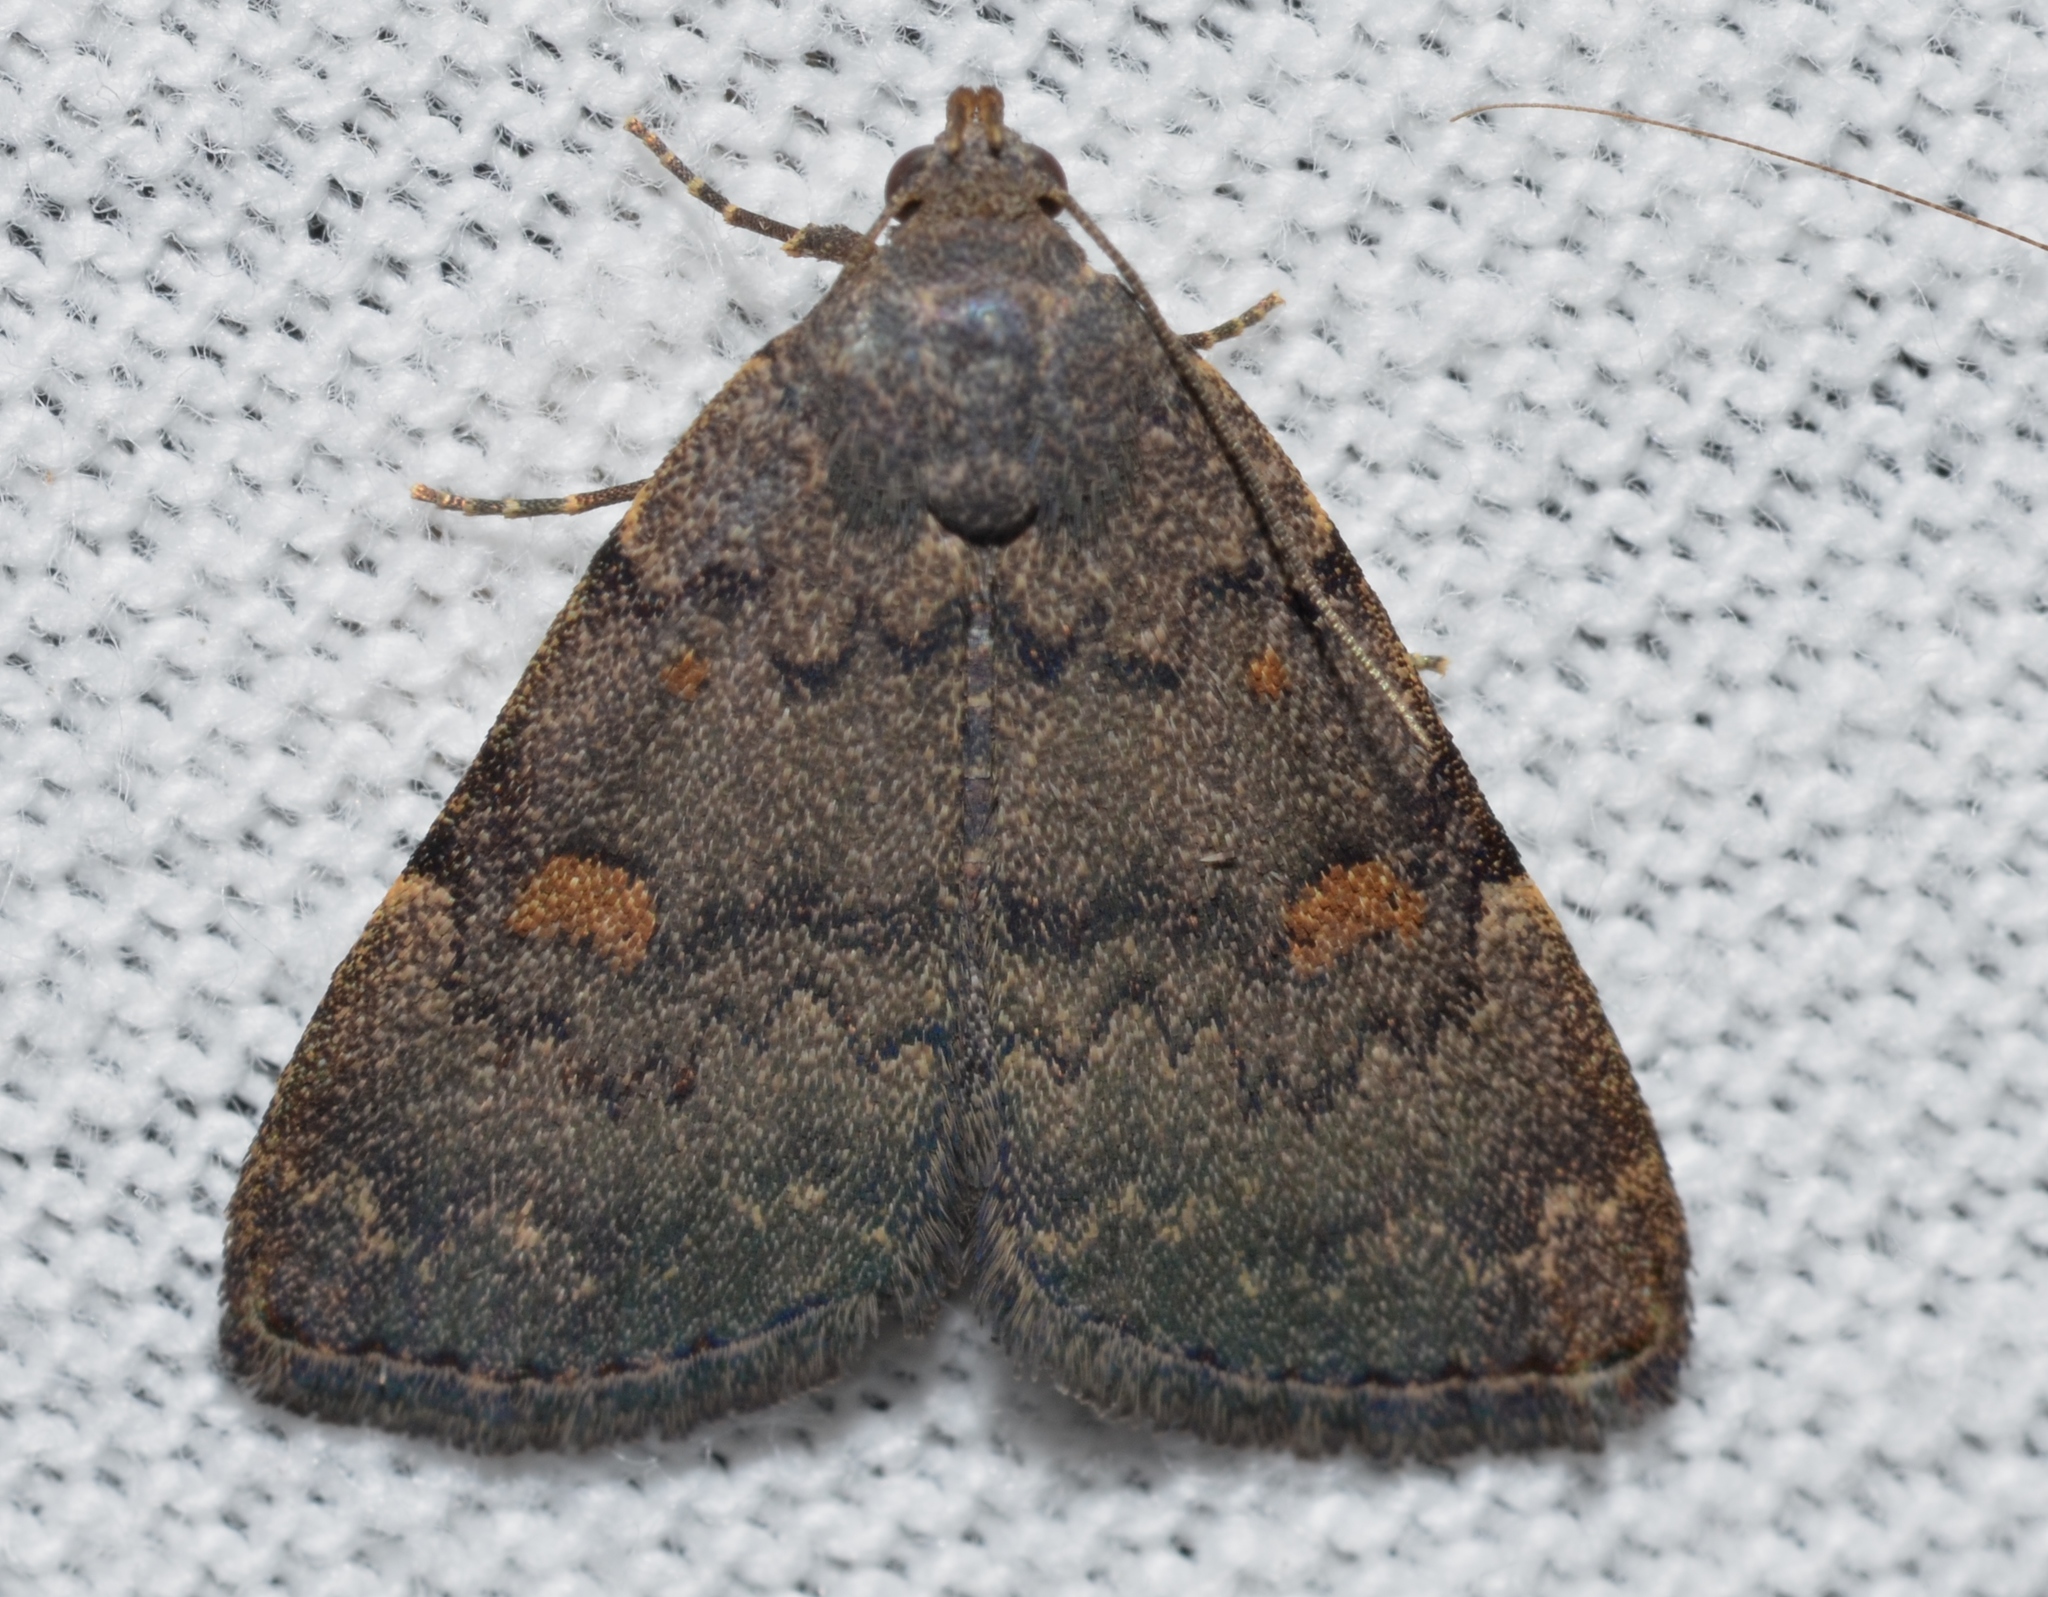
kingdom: Animalia
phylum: Arthropoda
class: Insecta
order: Lepidoptera
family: Erebidae
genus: Idia
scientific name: Idia aemula
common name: Common idia moth
